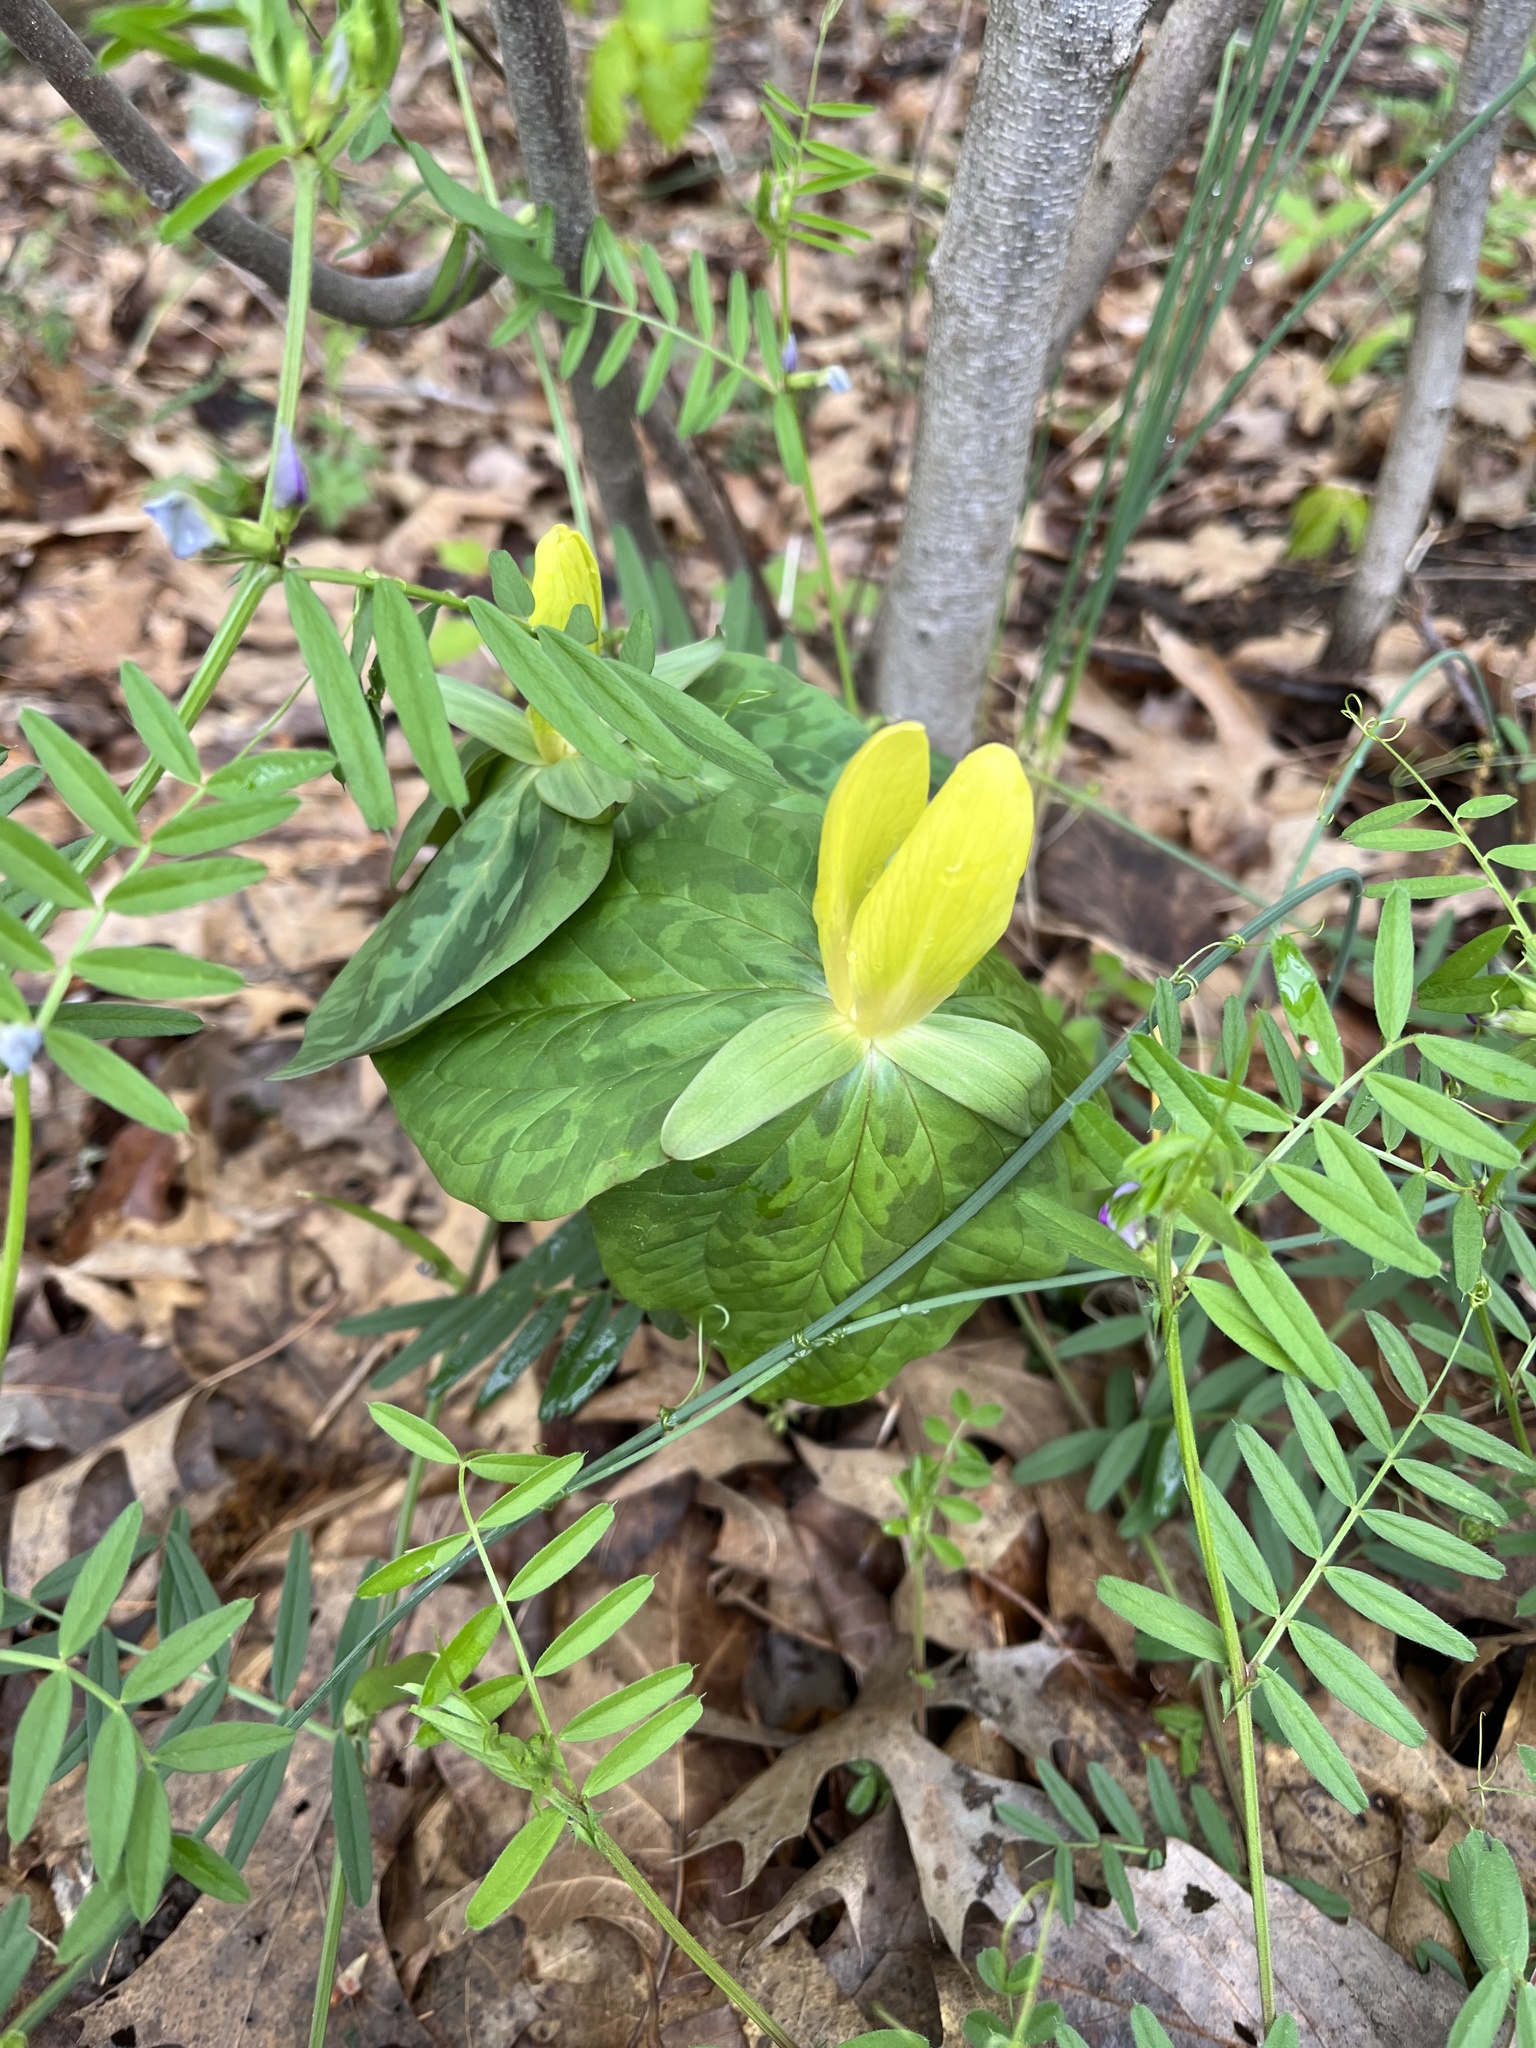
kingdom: Plantae
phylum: Tracheophyta
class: Liliopsida
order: Liliales
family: Melanthiaceae
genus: Trillium
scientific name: Trillium luteum
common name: Wax trillium
